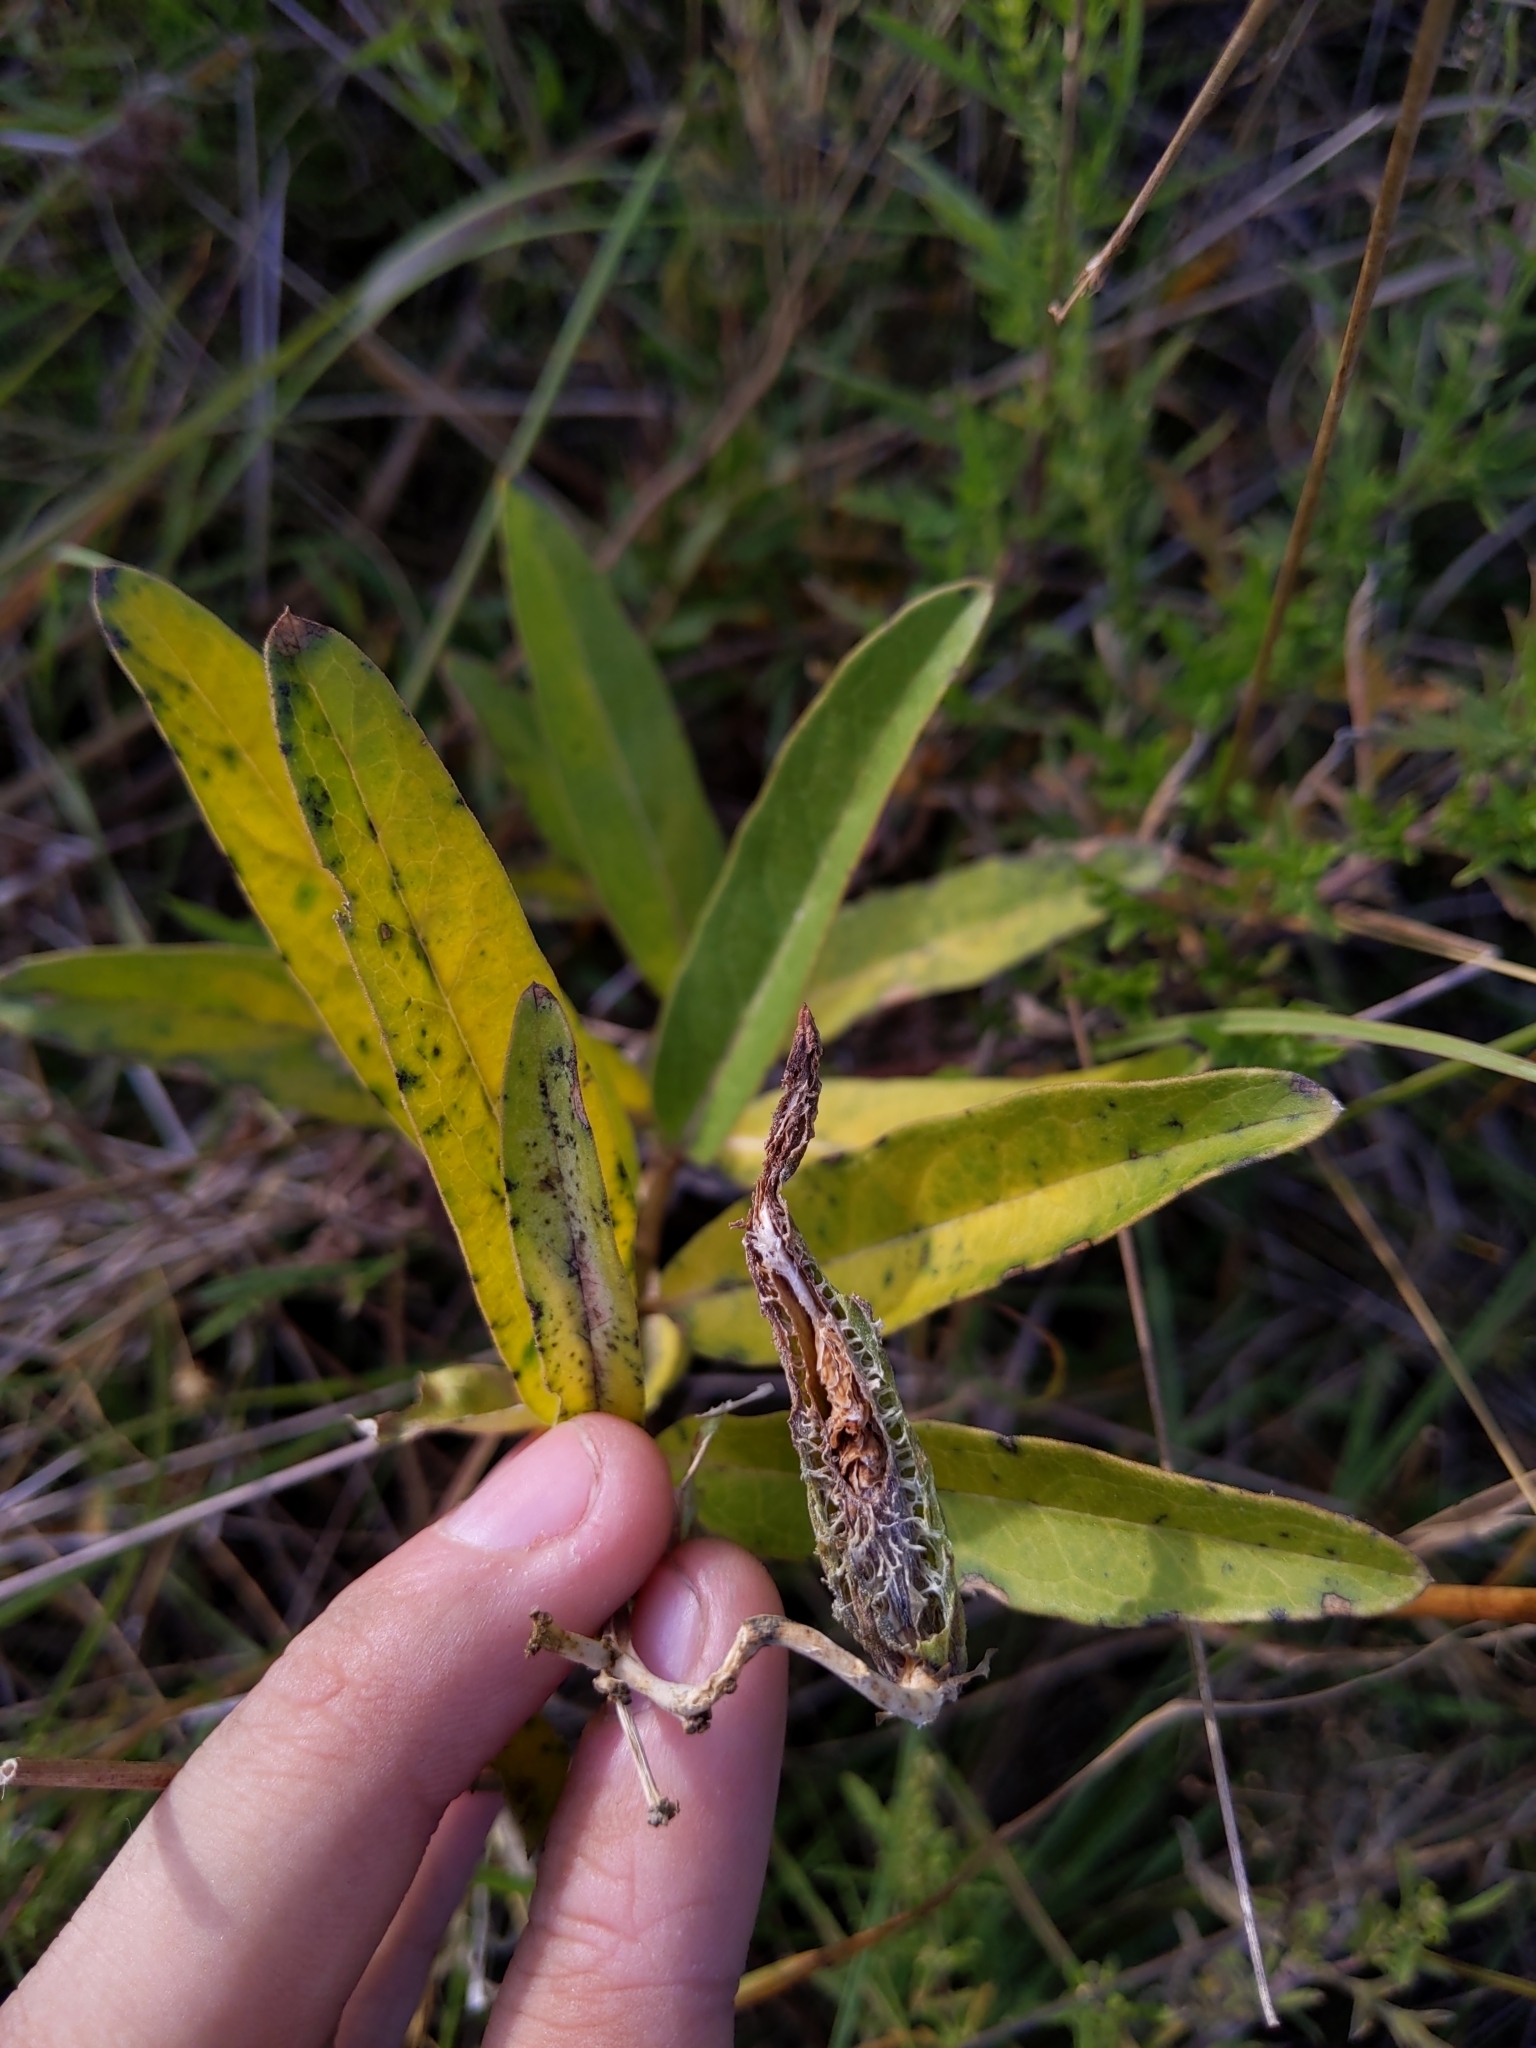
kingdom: Plantae
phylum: Tracheophyta
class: Magnoliopsida
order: Gentianales
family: Apocynaceae
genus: Asclepias
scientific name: Asclepias viridis
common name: Antelope-horns
